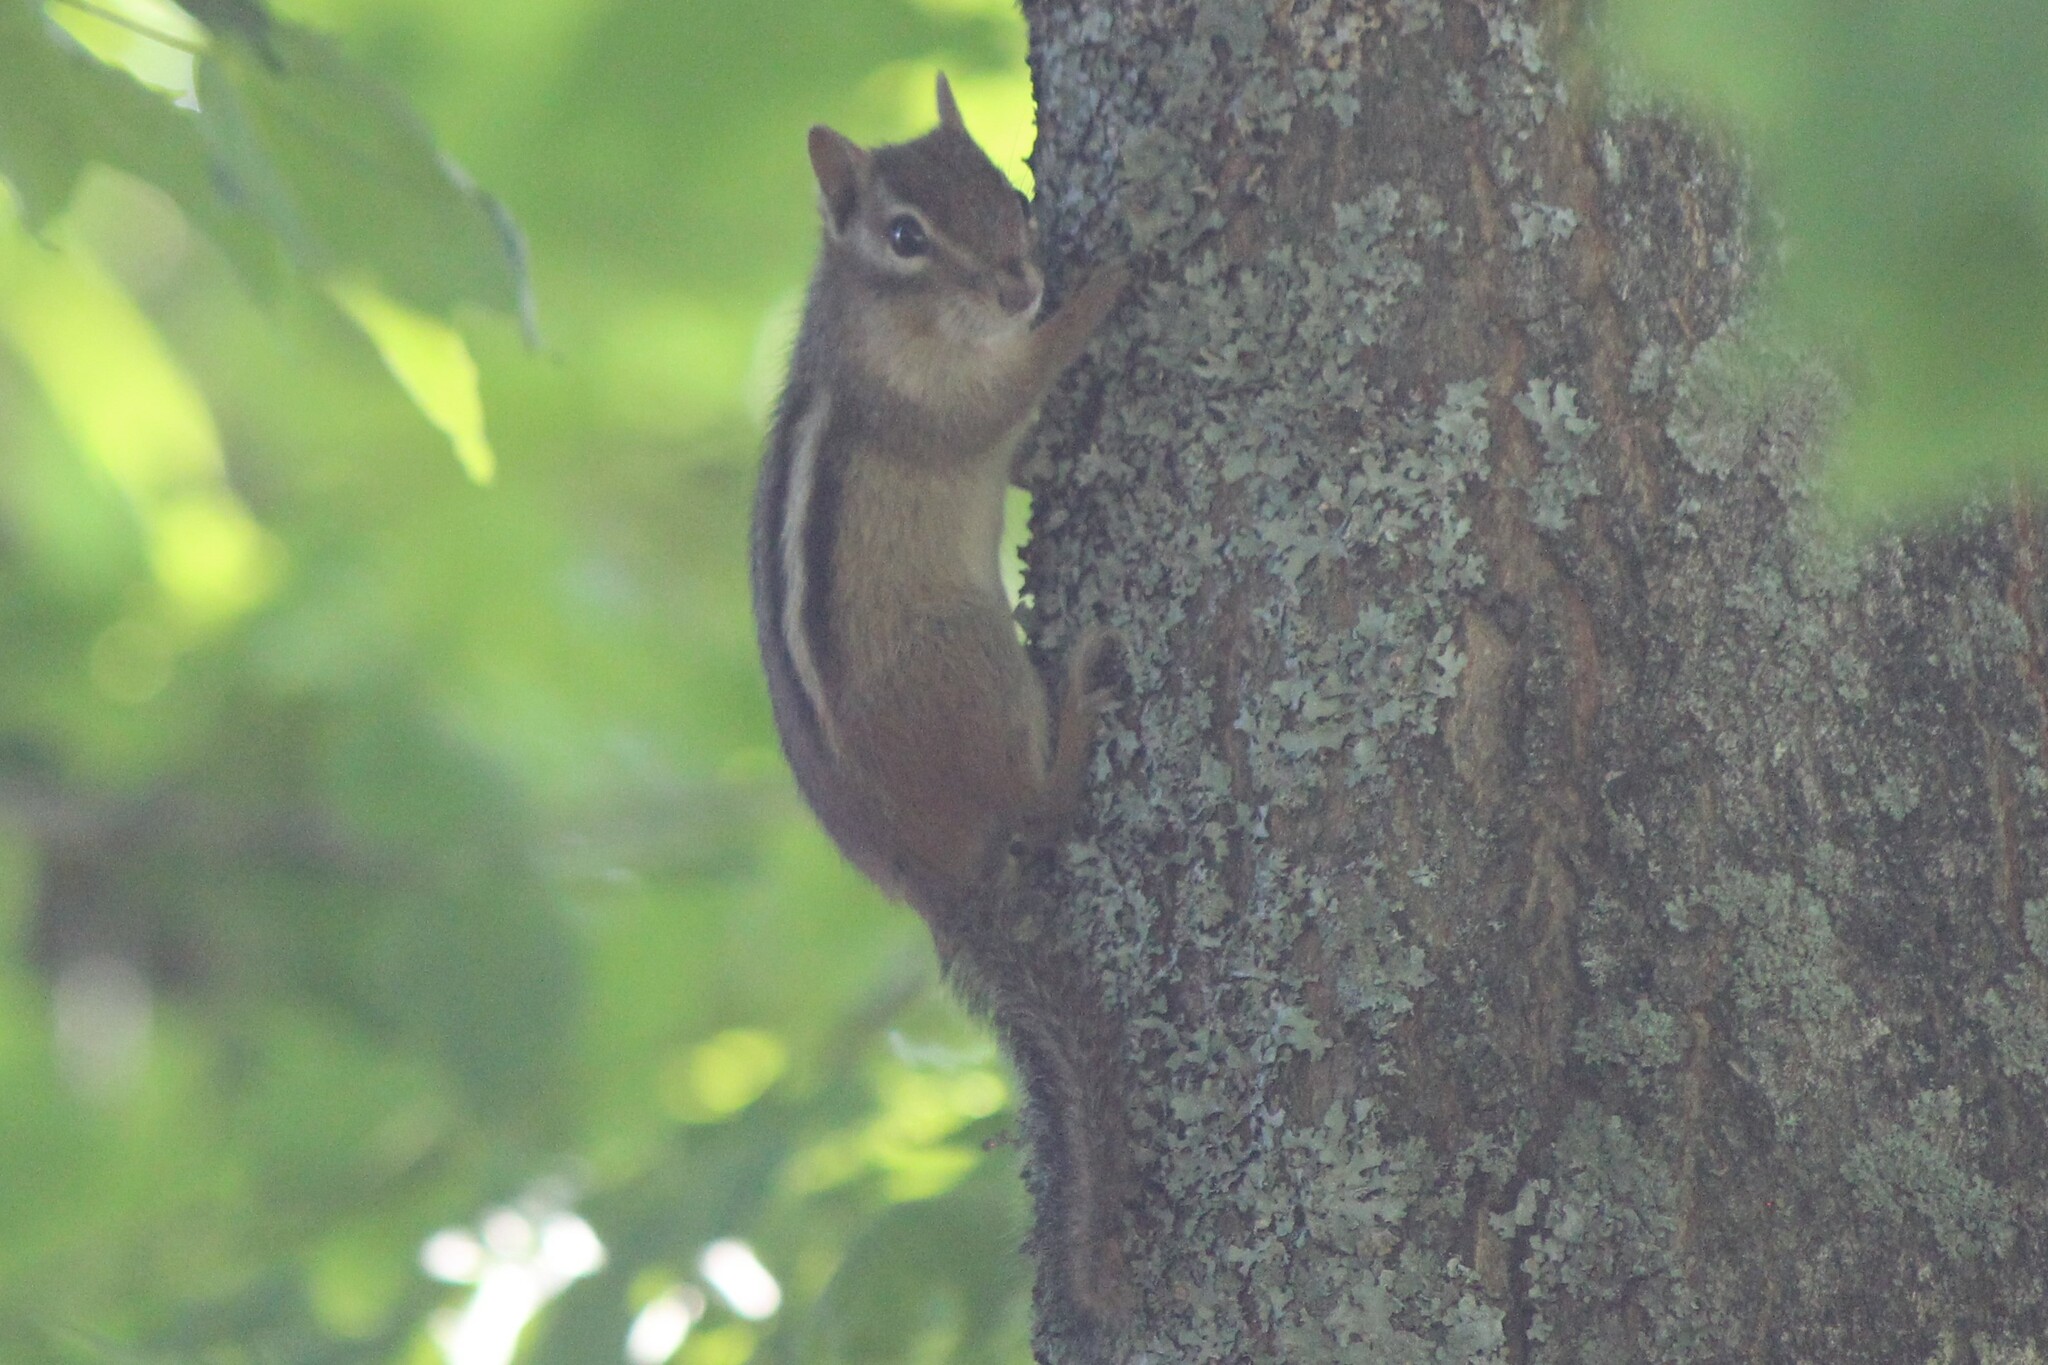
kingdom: Animalia
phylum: Chordata
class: Mammalia
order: Rodentia
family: Sciuridae
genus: Tamias
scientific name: Tamias striatus
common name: Eastern chipmunk
